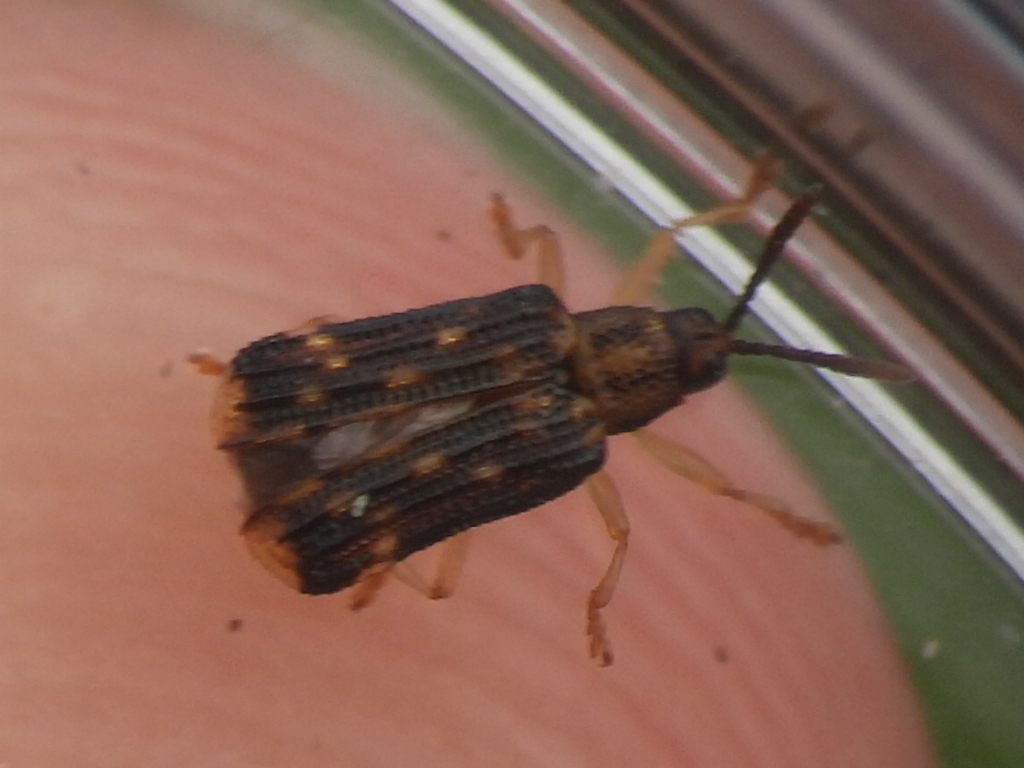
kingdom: Animalia
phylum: Arthropoda
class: Insecta
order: Coleoptera
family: Chrysomelidae
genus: Sumitrosis
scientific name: Sumitrosis inaequalis
